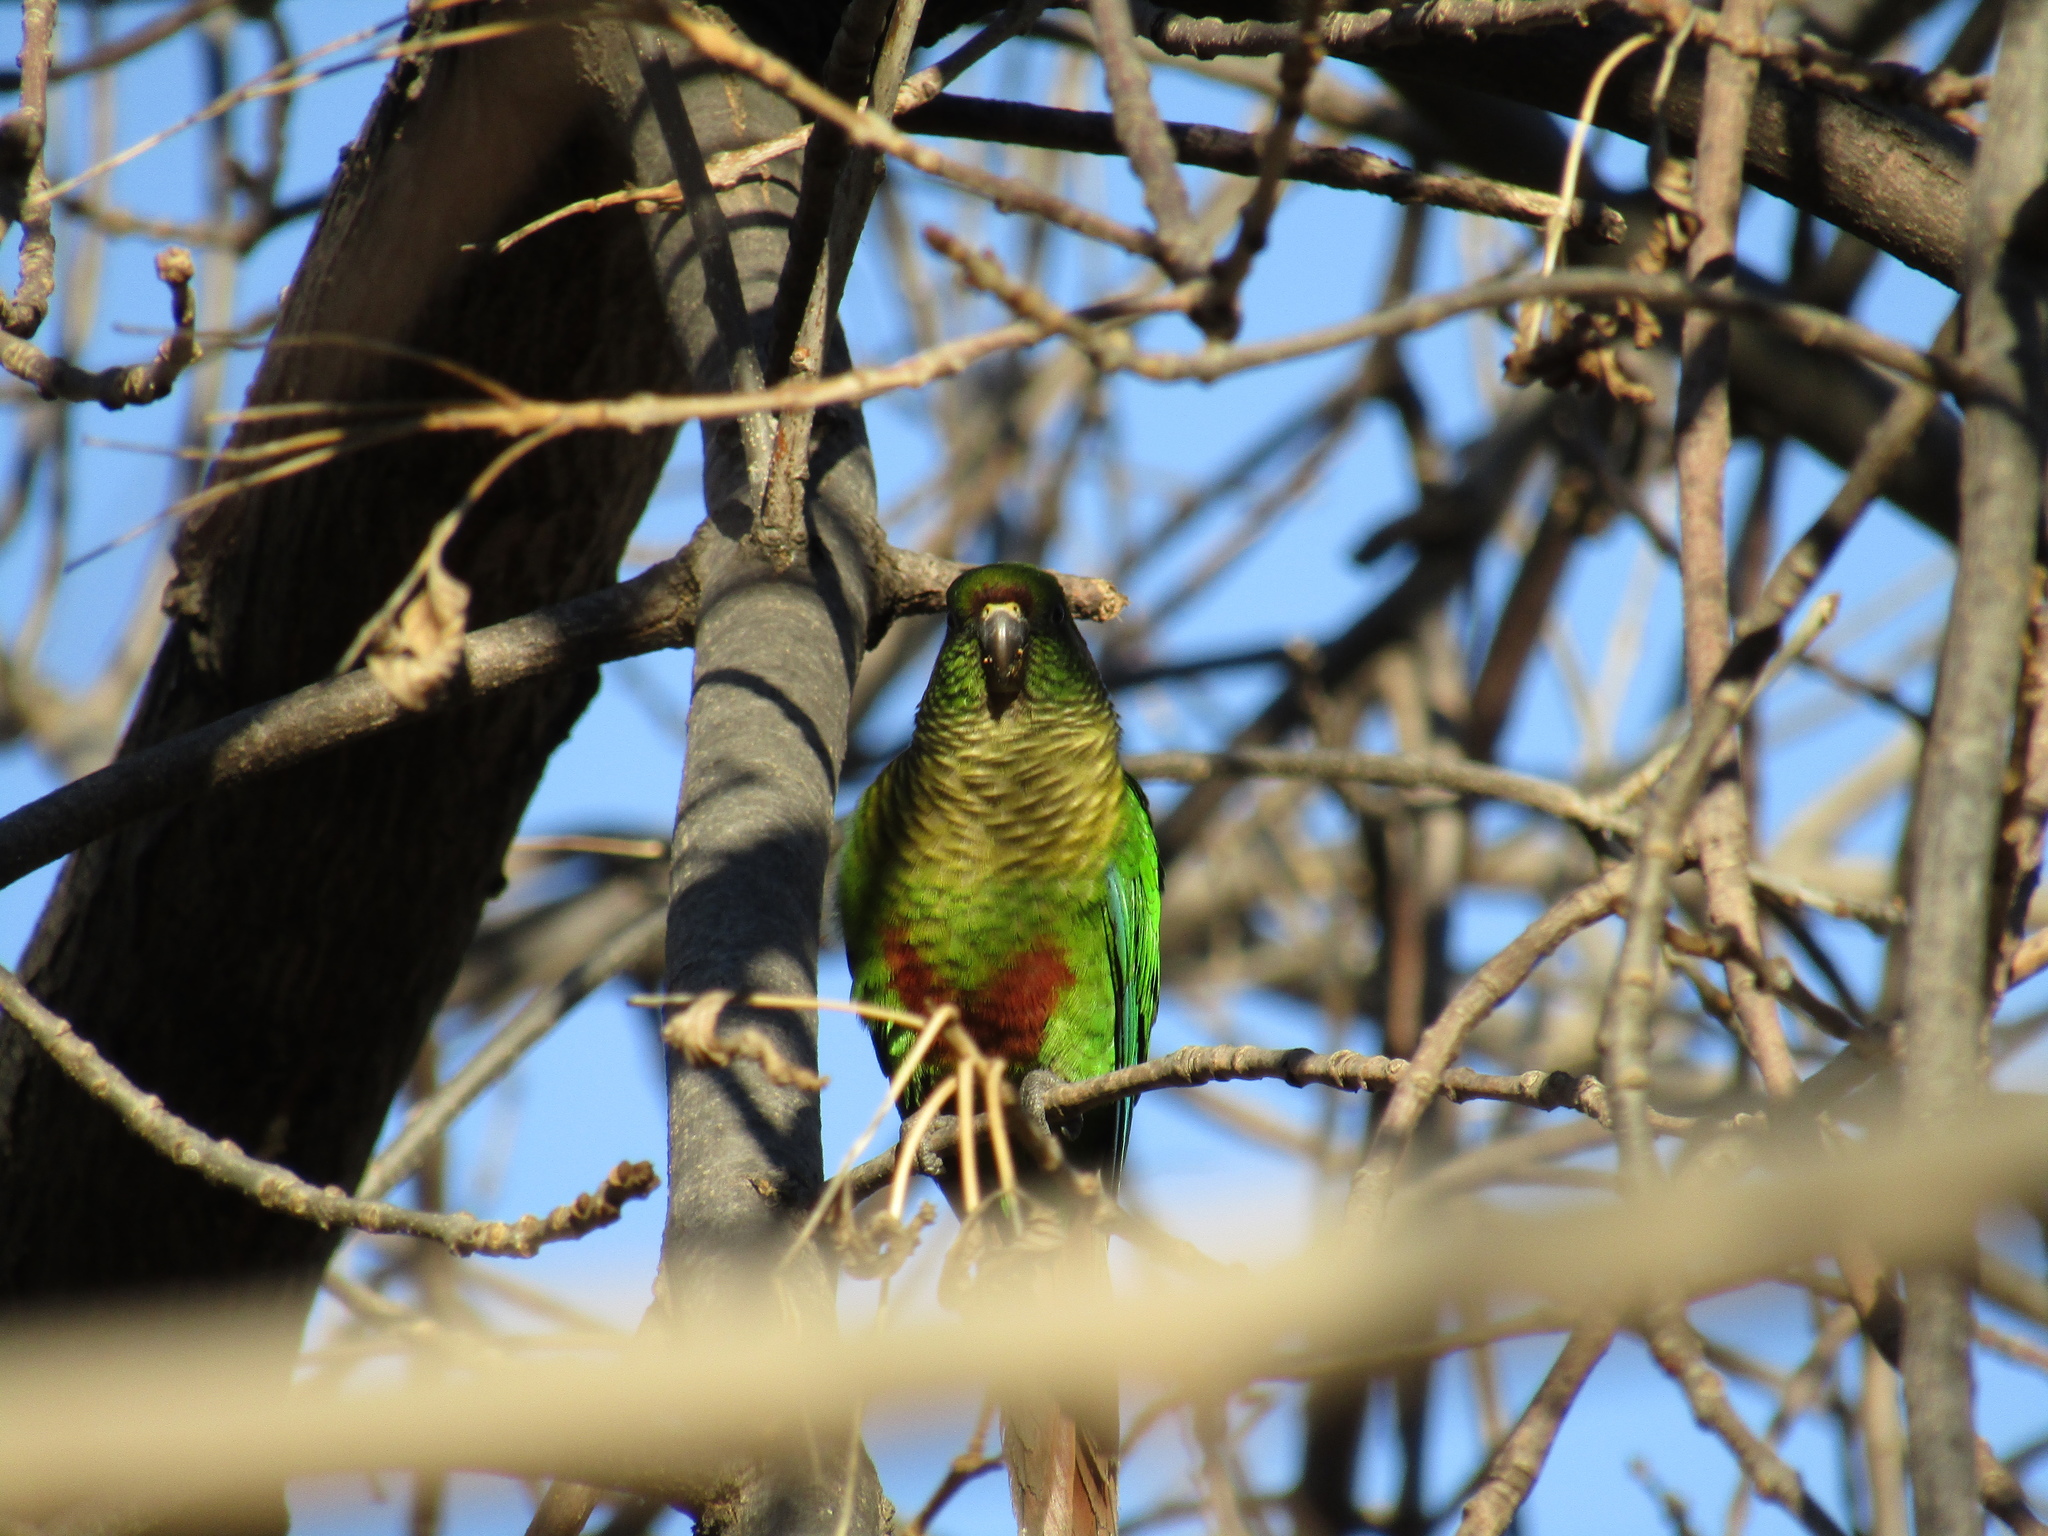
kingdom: Animalia
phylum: Chordata
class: Aves
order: Psittaciformes
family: Psittacidae
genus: Pyrrhura
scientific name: Pyrrhura frontalis
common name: Maroon-bellied parakeet
